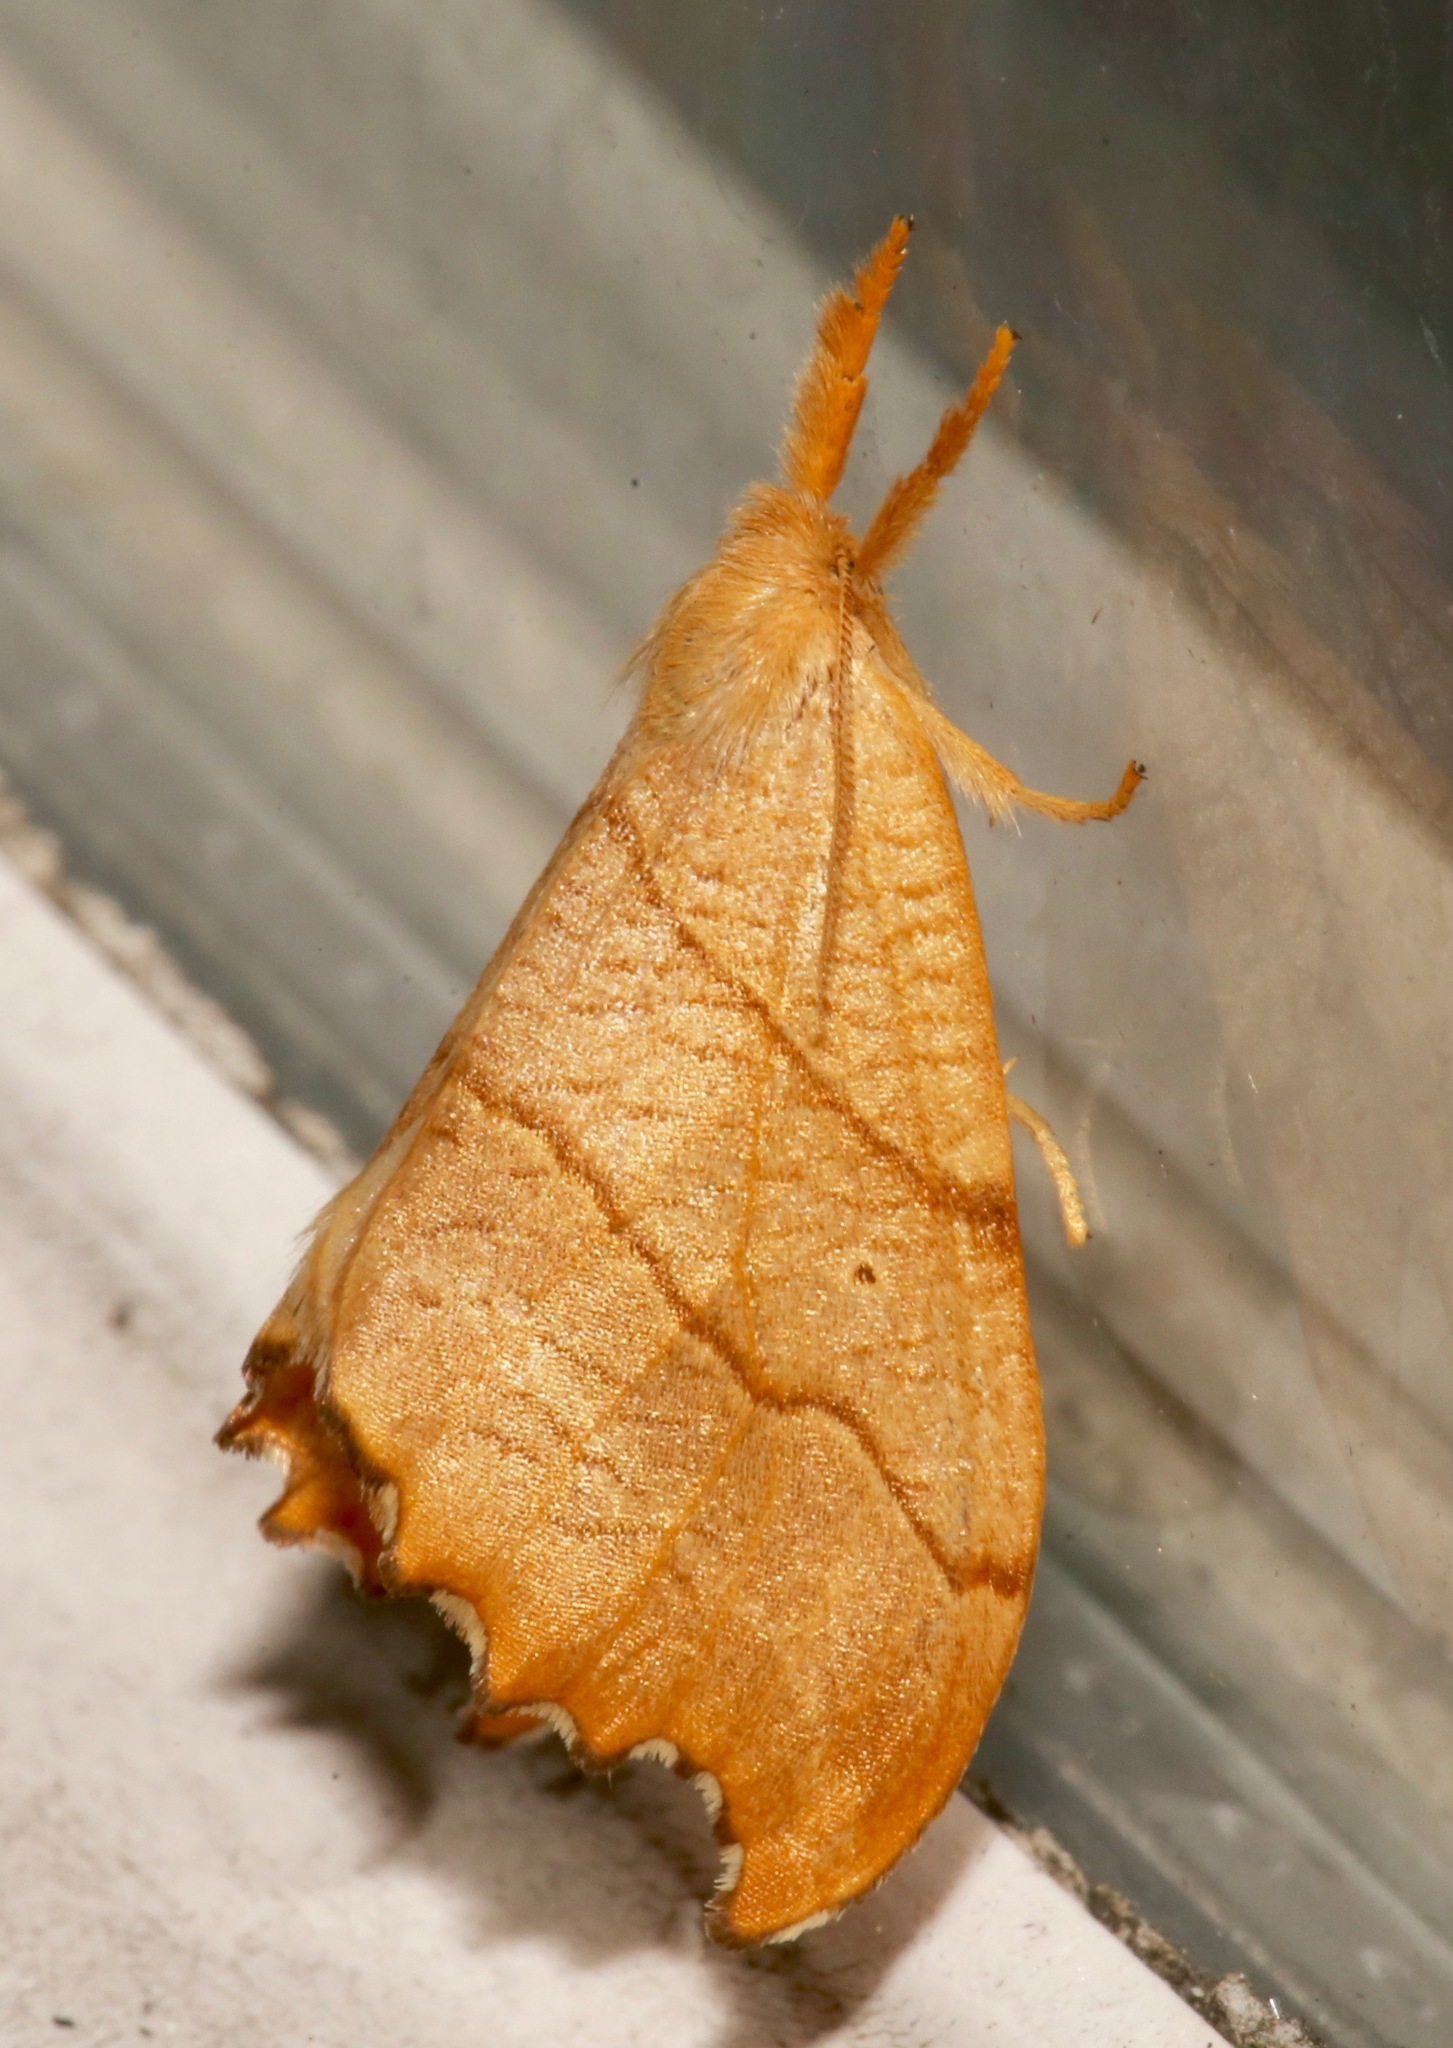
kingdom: Animalia
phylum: Arthropoda
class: Insecta
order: Lepidoptera
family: Drepanidae
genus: Falcaria
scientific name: Falcaria bilineata
